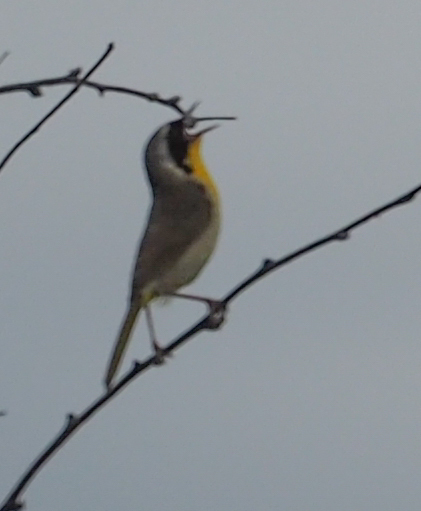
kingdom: Animalia
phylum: Chordata
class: Aves
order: Passeriformes
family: Parulidae
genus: Geothlypis
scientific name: Geothlypis trichas
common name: Common yellowthroat
